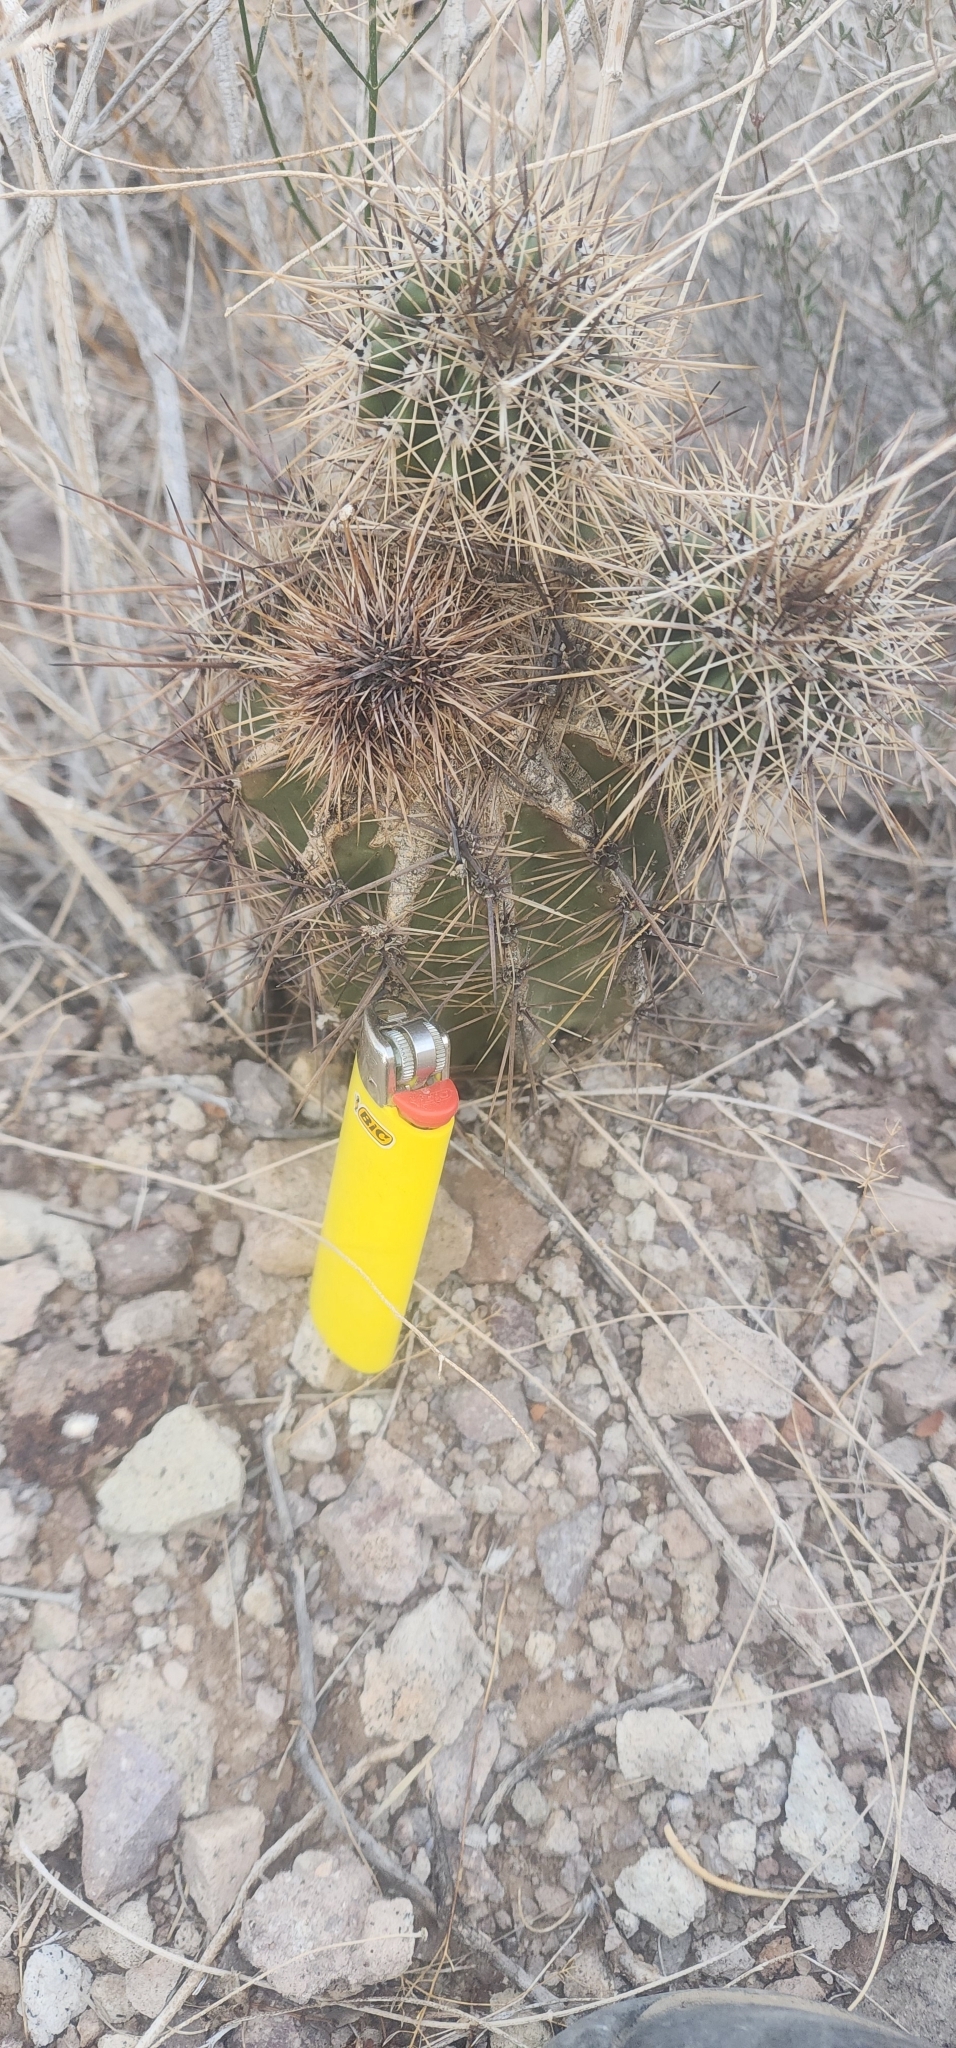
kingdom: Plantae
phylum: Tracheophyta
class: Magnoliopsida
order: Caryophyllales
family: Cactaceae
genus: Carnegiea
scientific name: Carnegiea gigantea
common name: Saguaro
